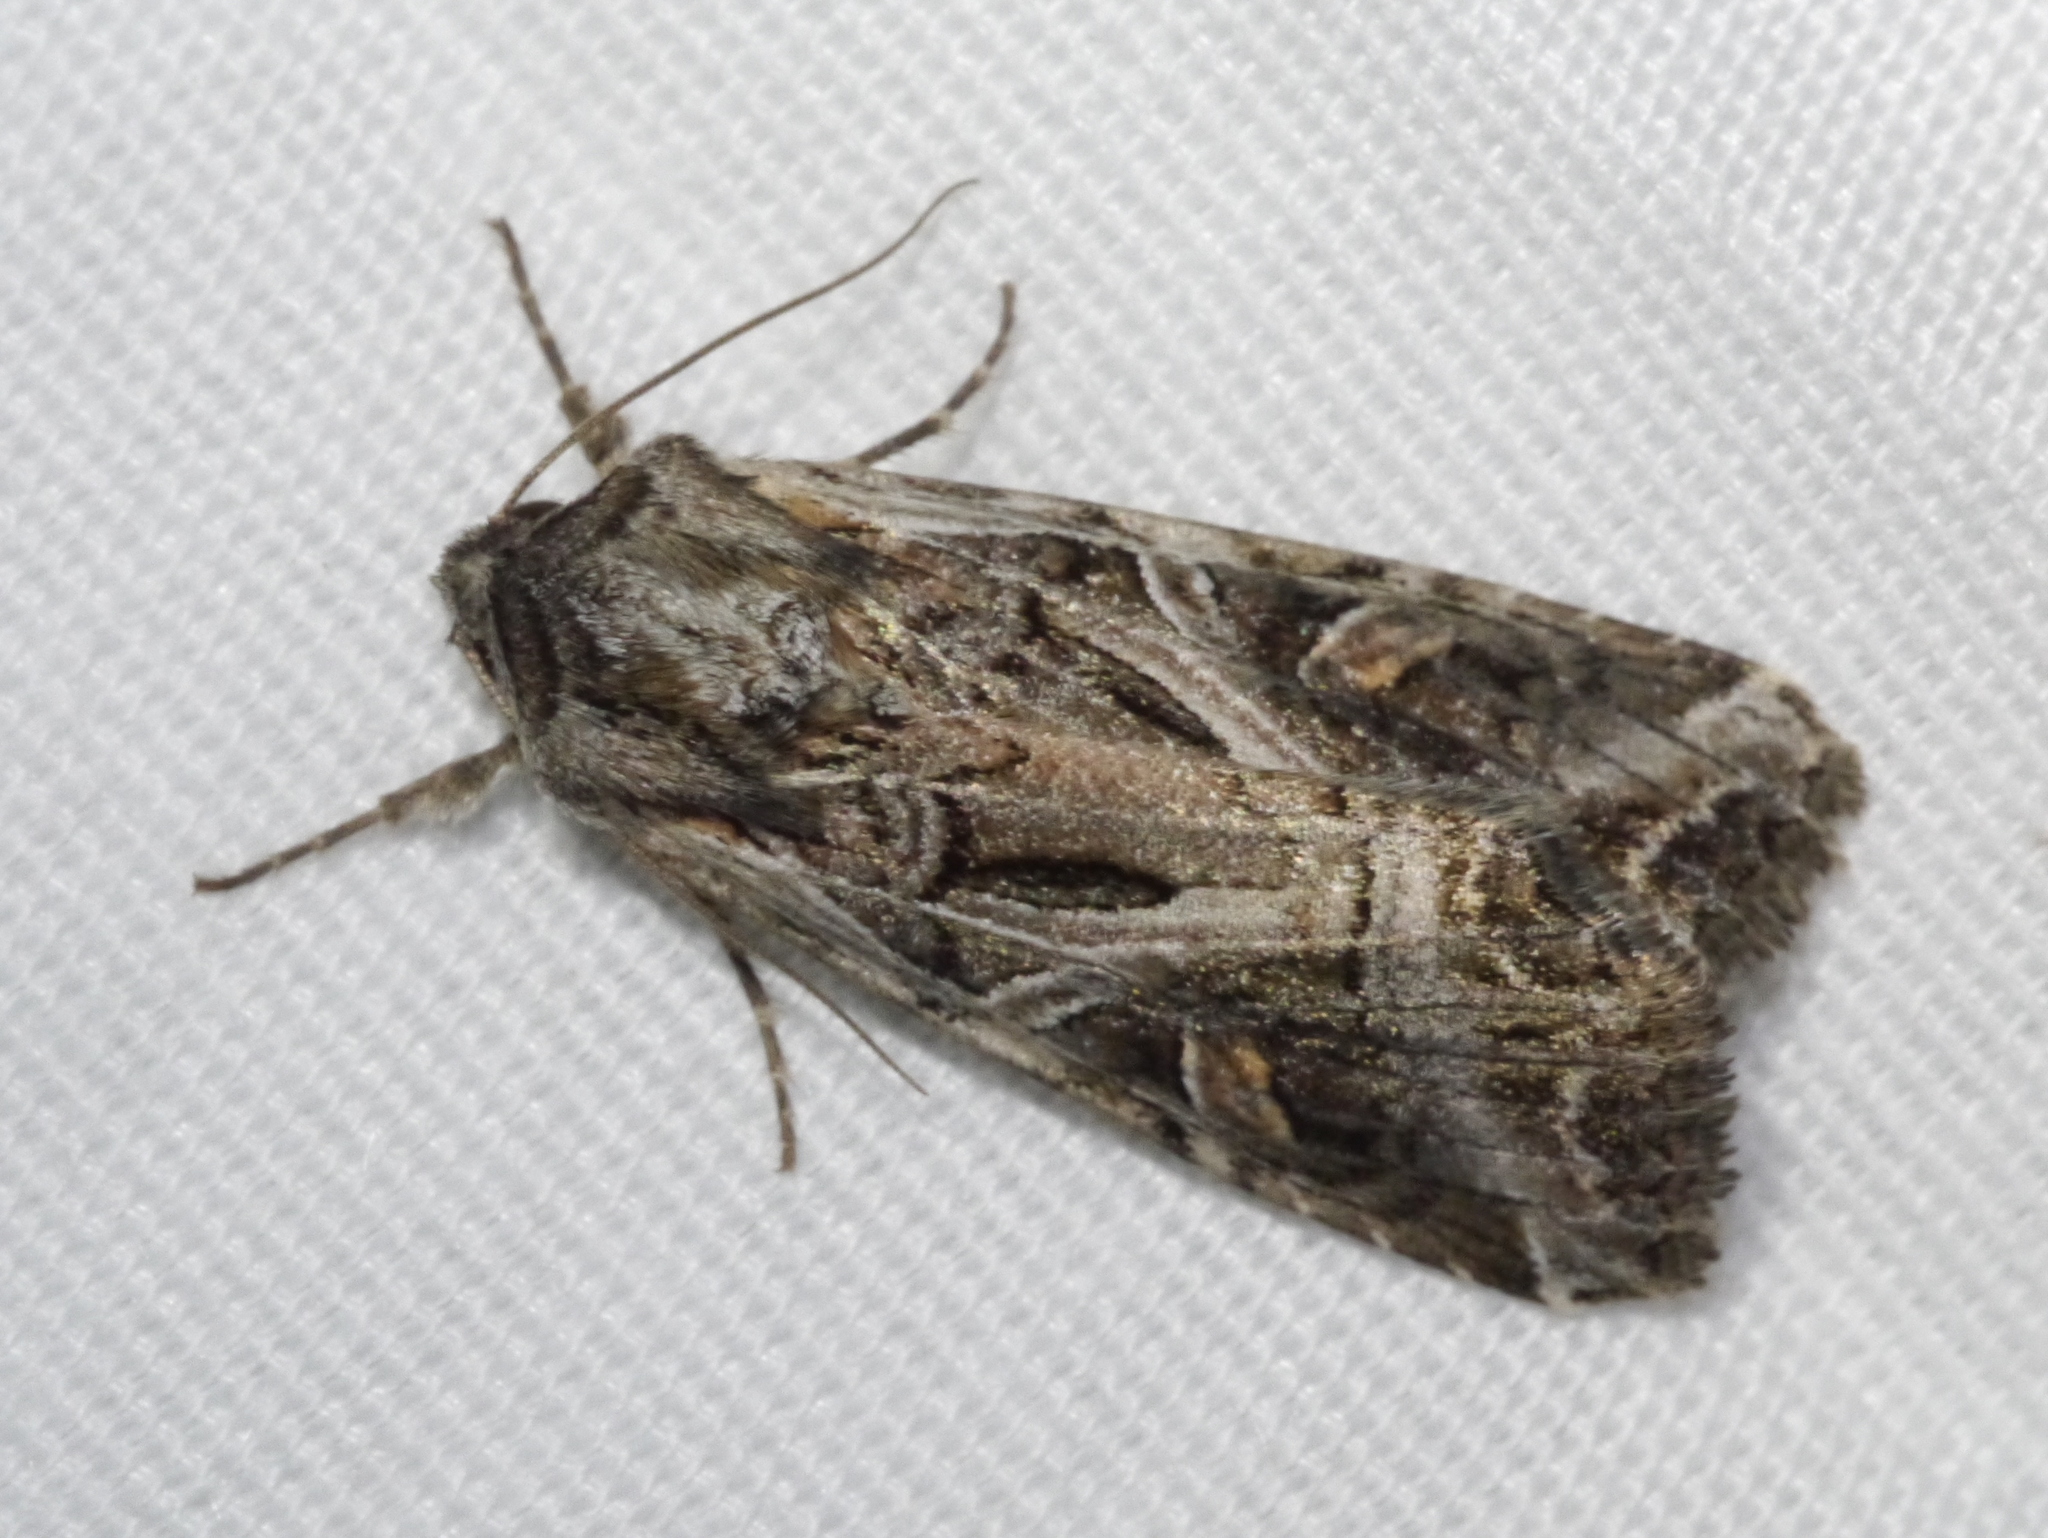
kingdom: Animalia
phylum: Arthropoda
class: Insecta
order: Lepidoptera
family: Noctuidae
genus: Trichordestra
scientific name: Trichordestra prodeniformis
